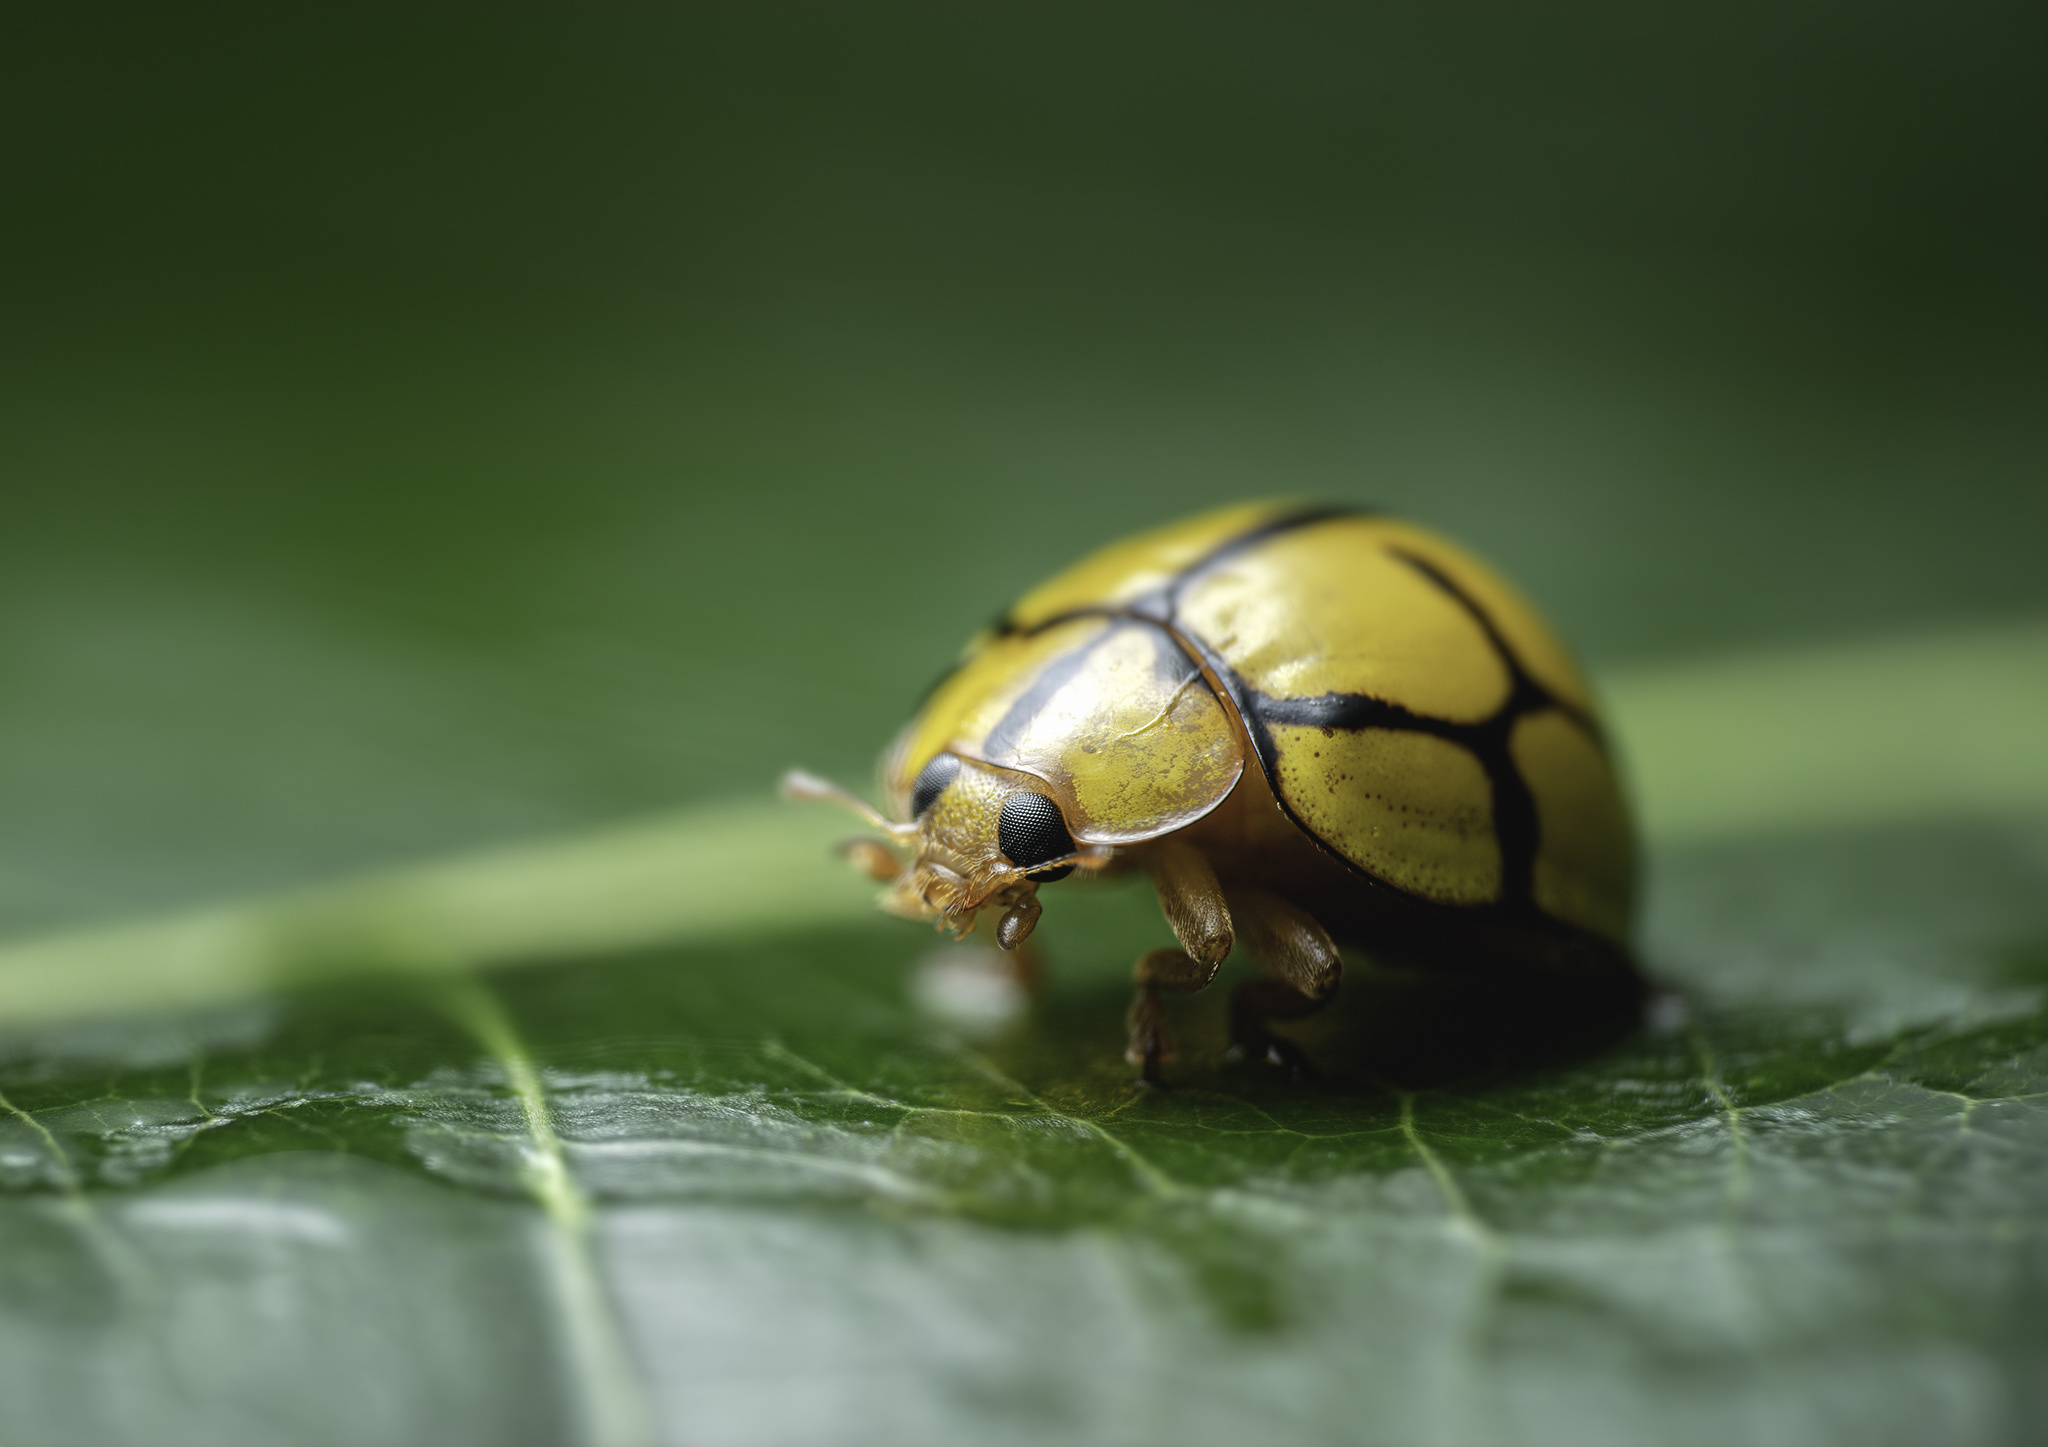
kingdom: Animalia
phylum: Arthropoda
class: Insecta
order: Coleoptera
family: Coccinellidae
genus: Heteroneda
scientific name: Heteroneda
